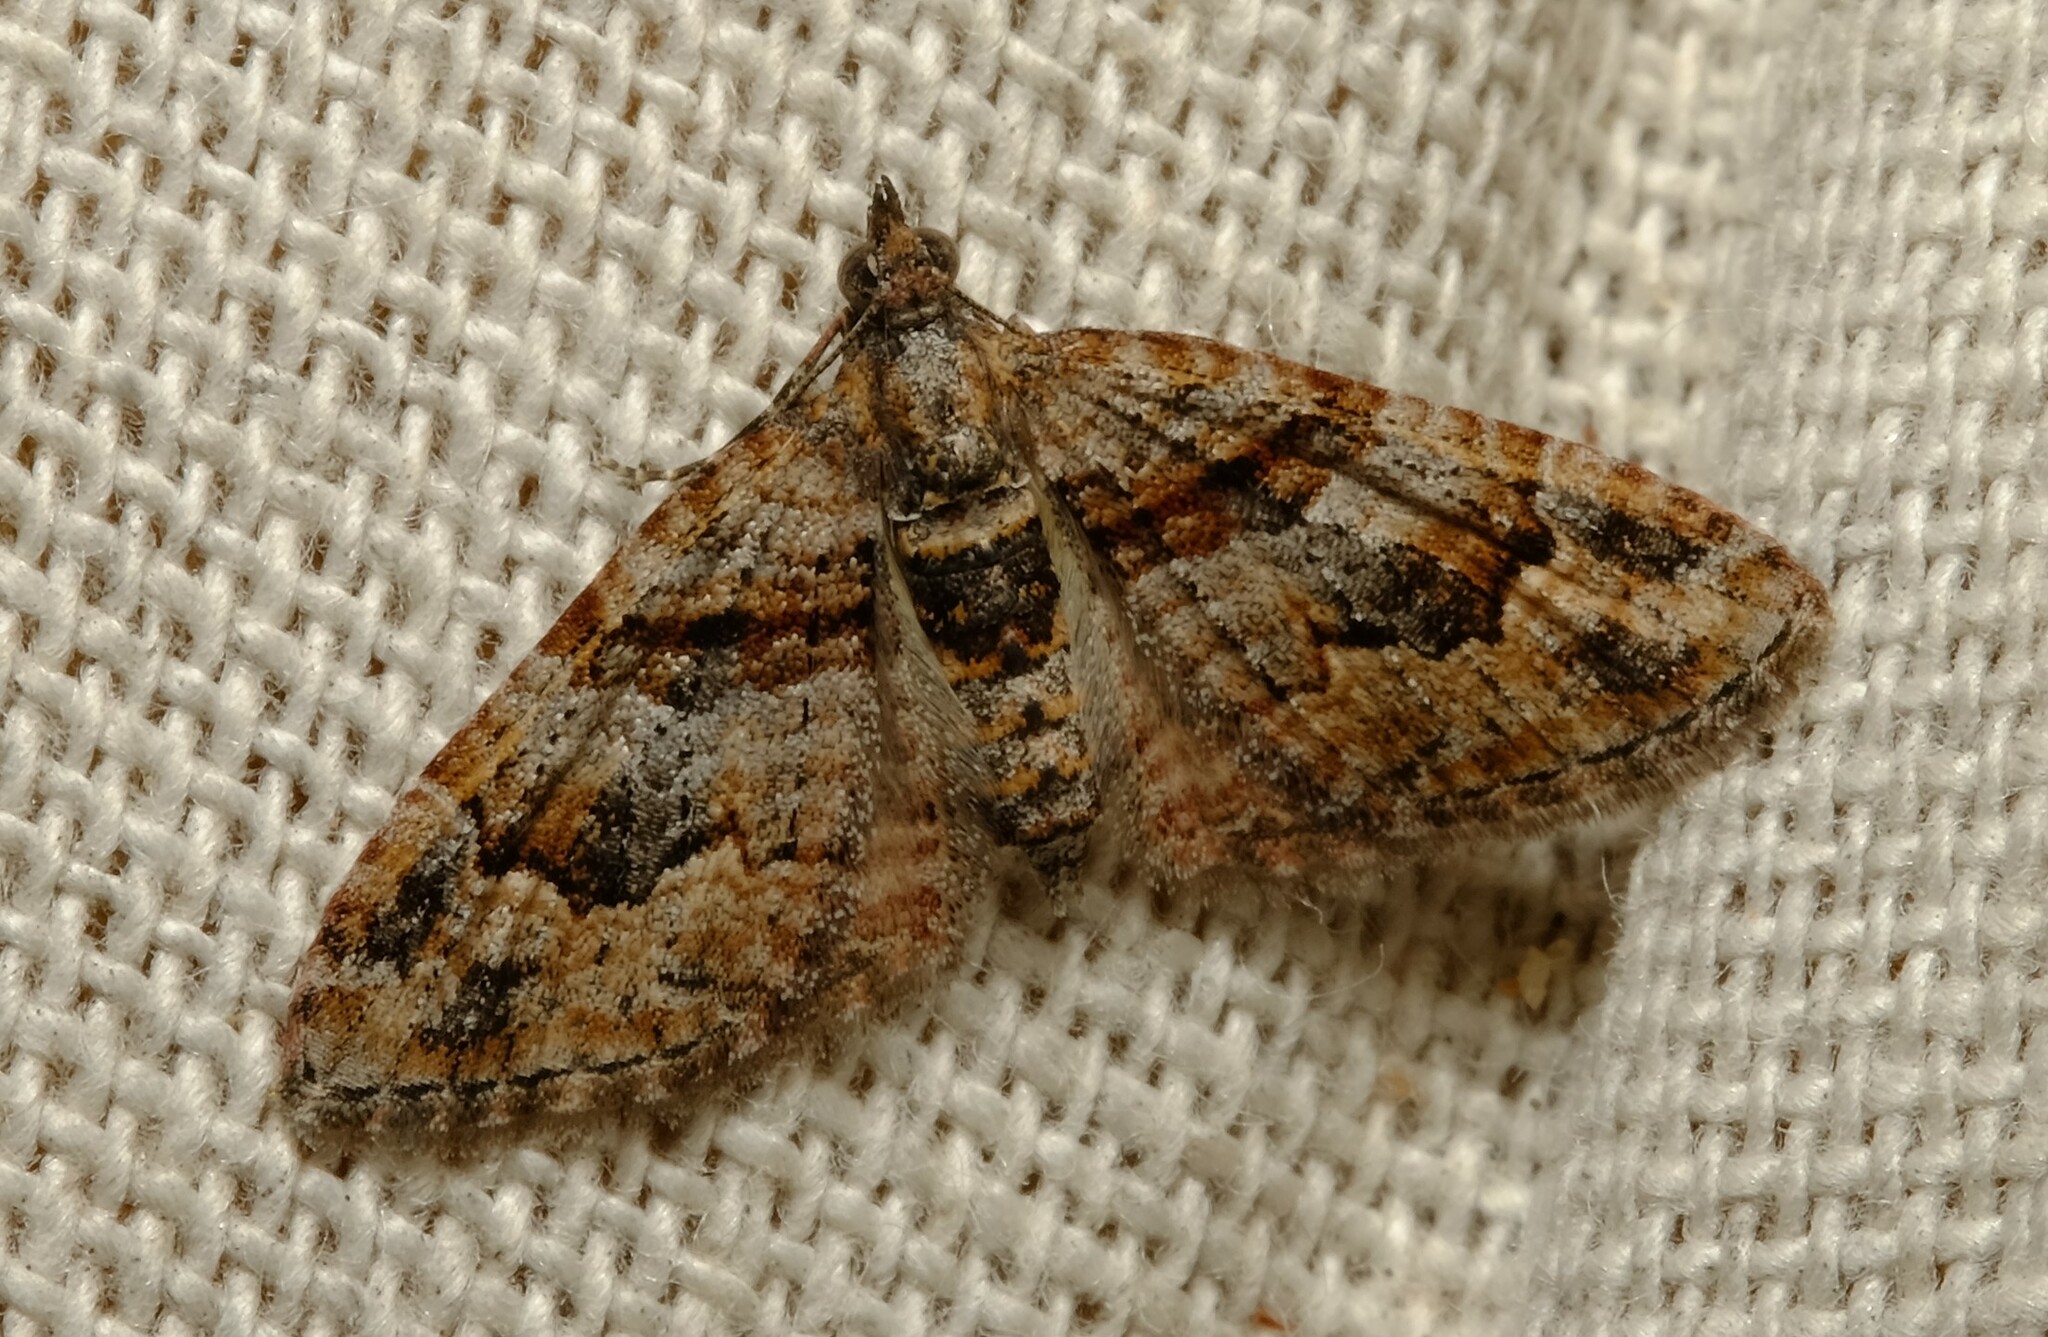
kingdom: Animalia
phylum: Arthropoda
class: Insecta
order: Lepidoptera
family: Geometridae
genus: Phrissogonus
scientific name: Phrissogonus laticostata
